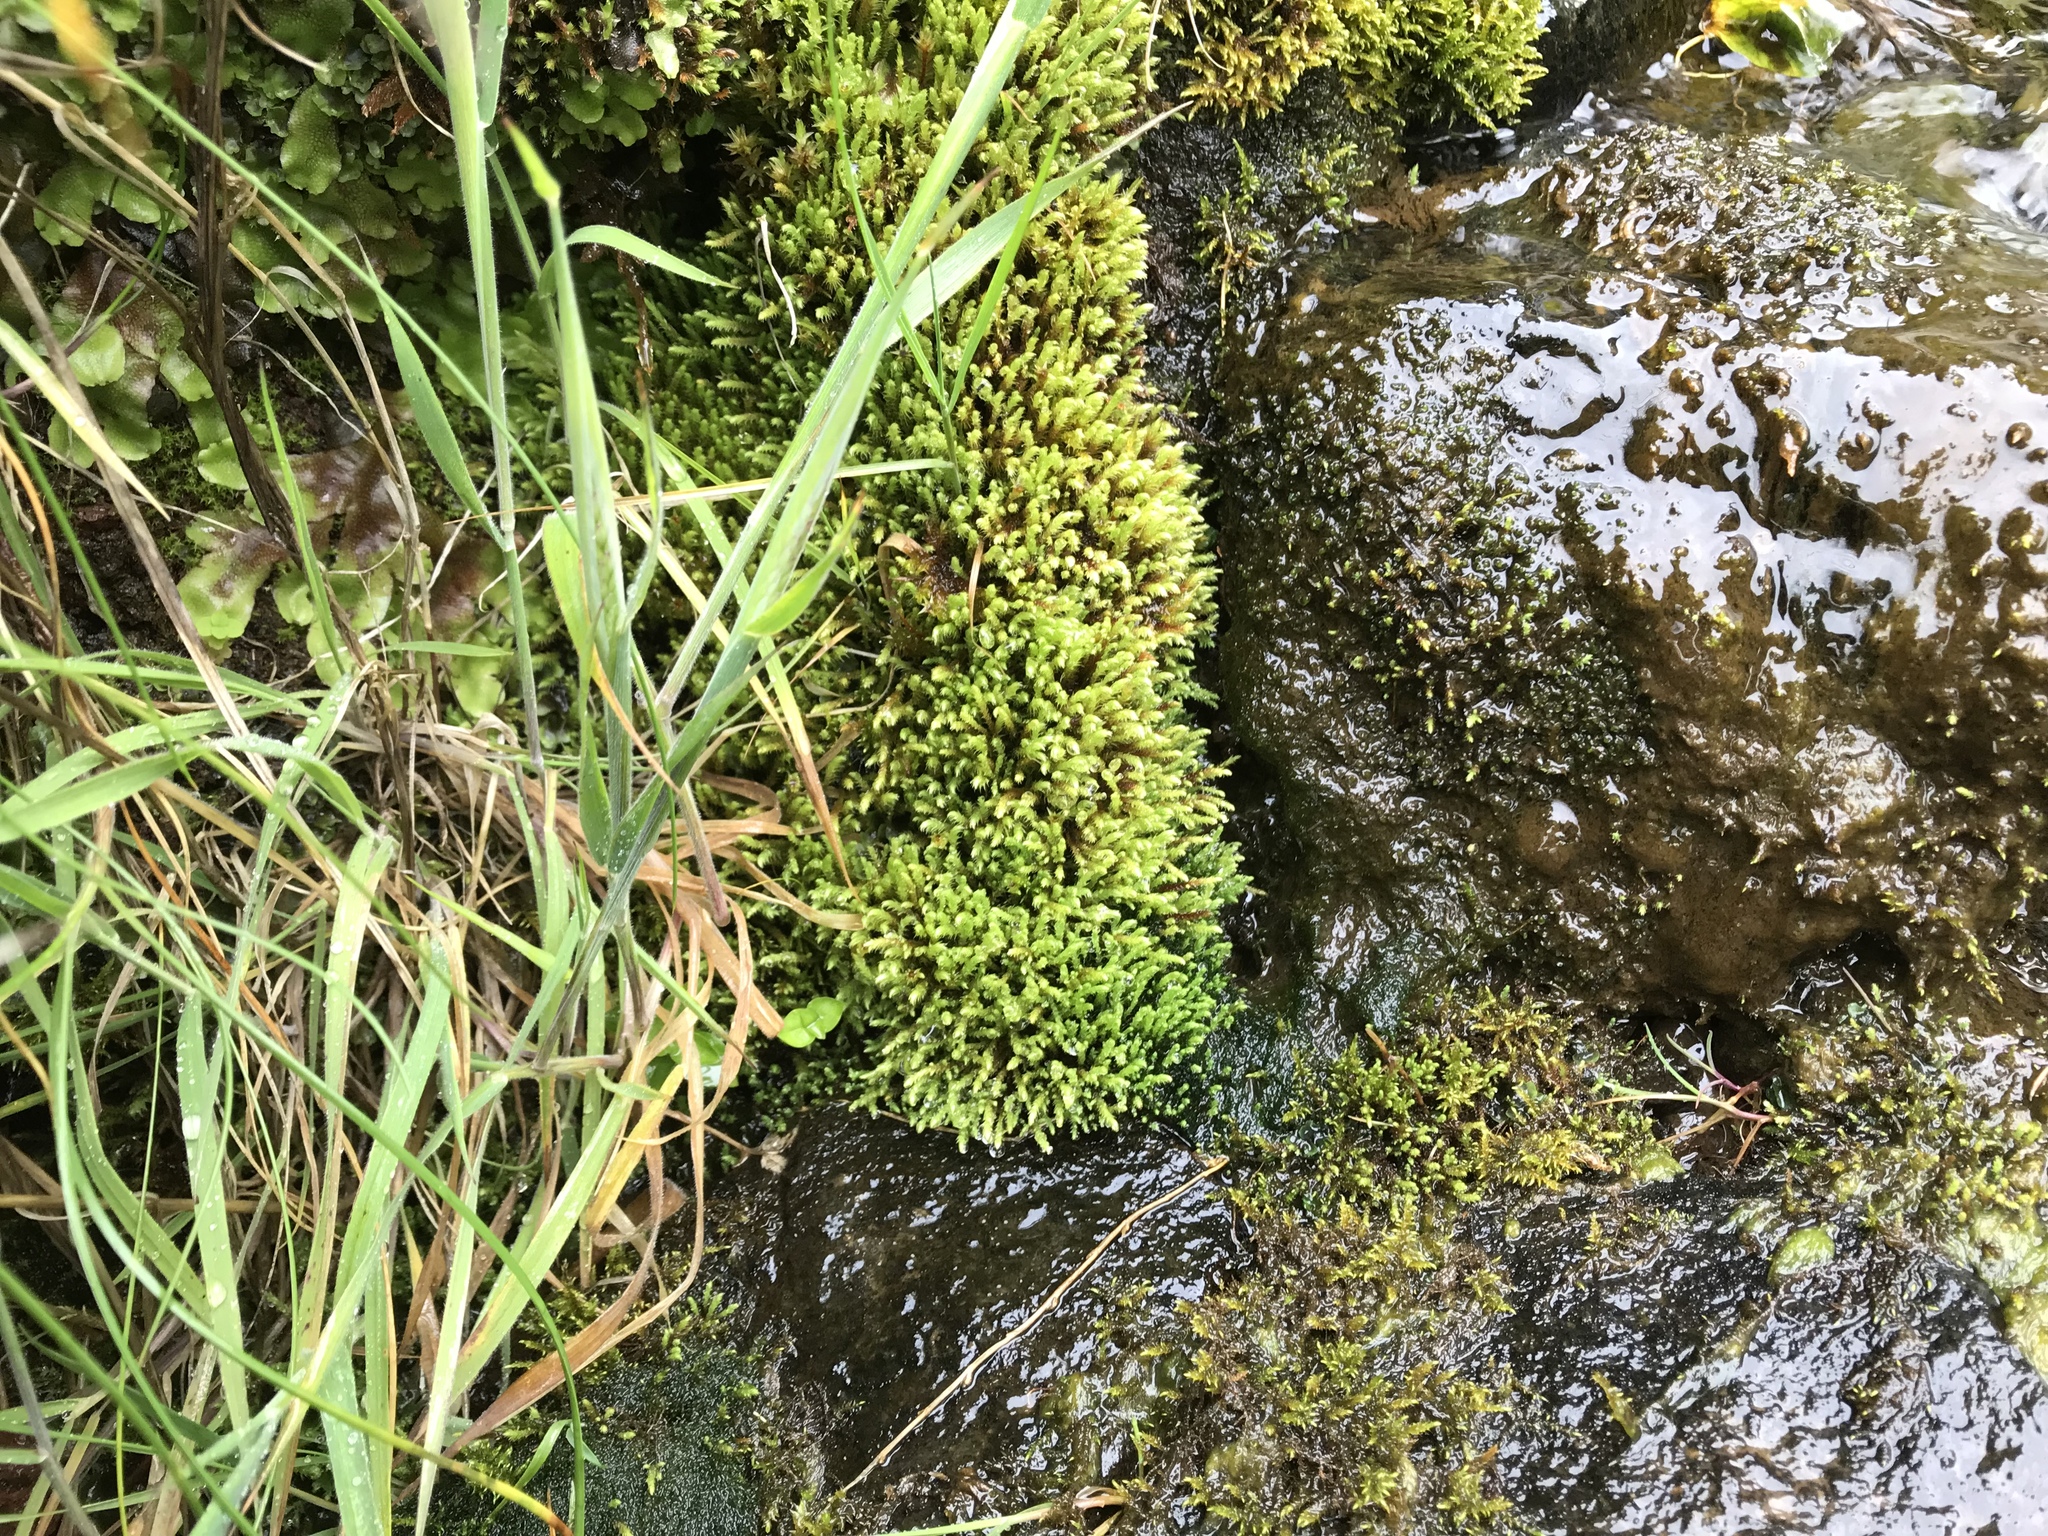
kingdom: Plantae
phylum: Bryophyta
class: Bryopsida
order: Bartramiales
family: Bartramiaceae
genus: Philonotis
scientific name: Philonotis calcarea
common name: Thick-nerved apple-moss
